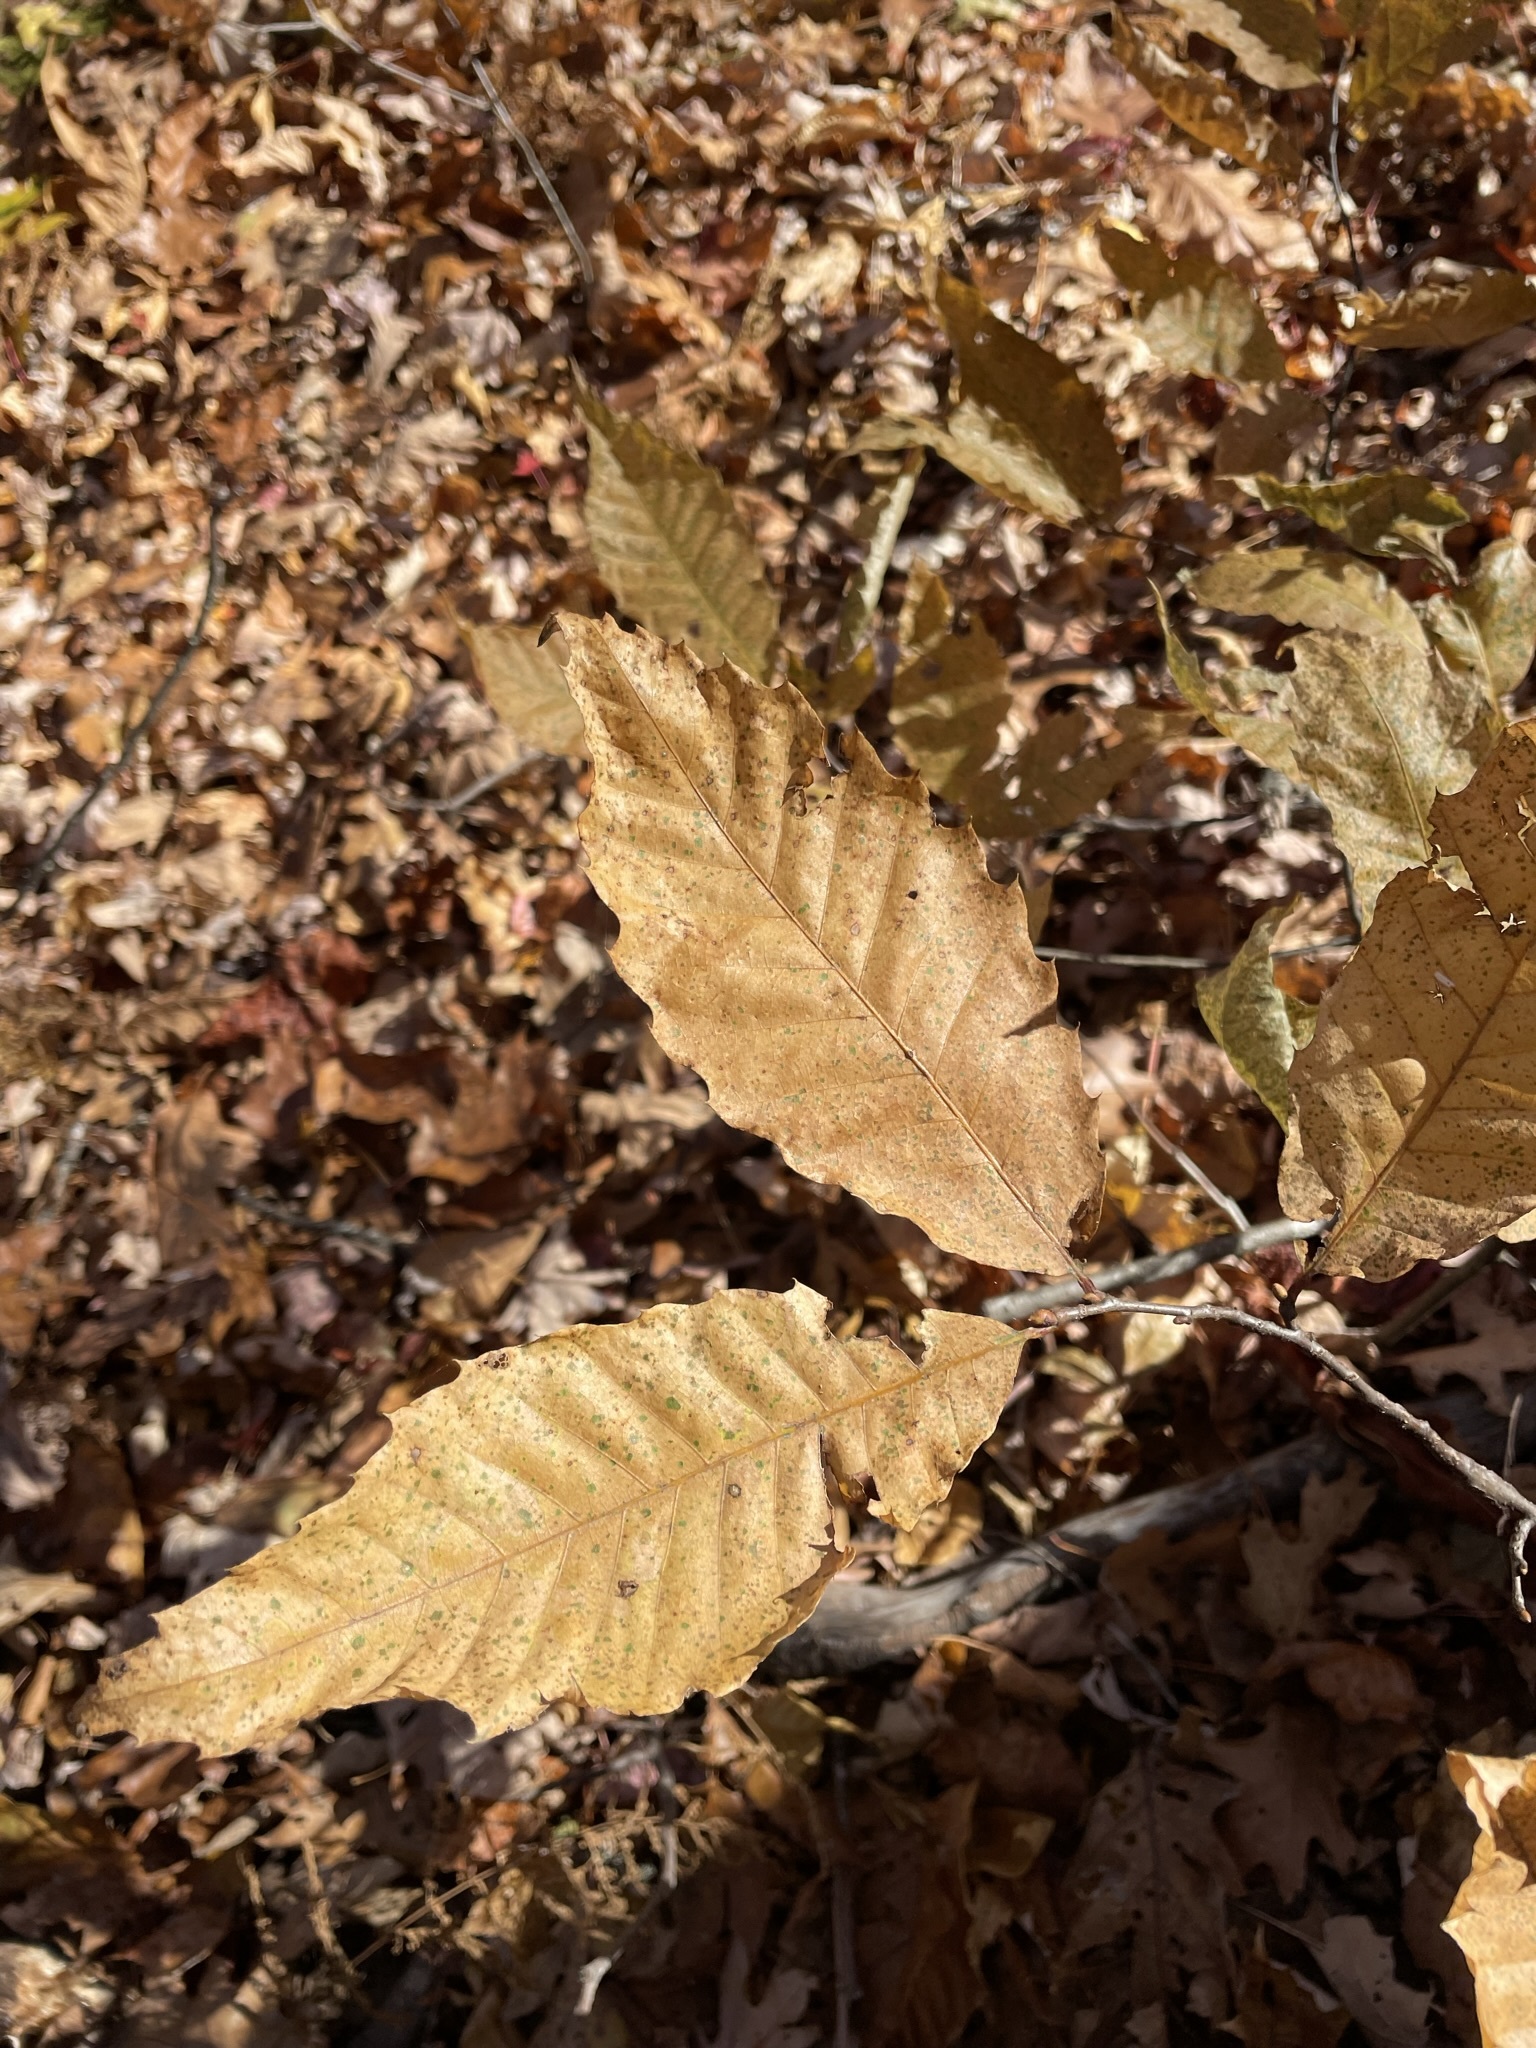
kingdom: Plantae
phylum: Tracheophyta
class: Magnoliopsida
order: Fagales
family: Fagaceae
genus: Castanea
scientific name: Castanea dentata
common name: American chestnut
